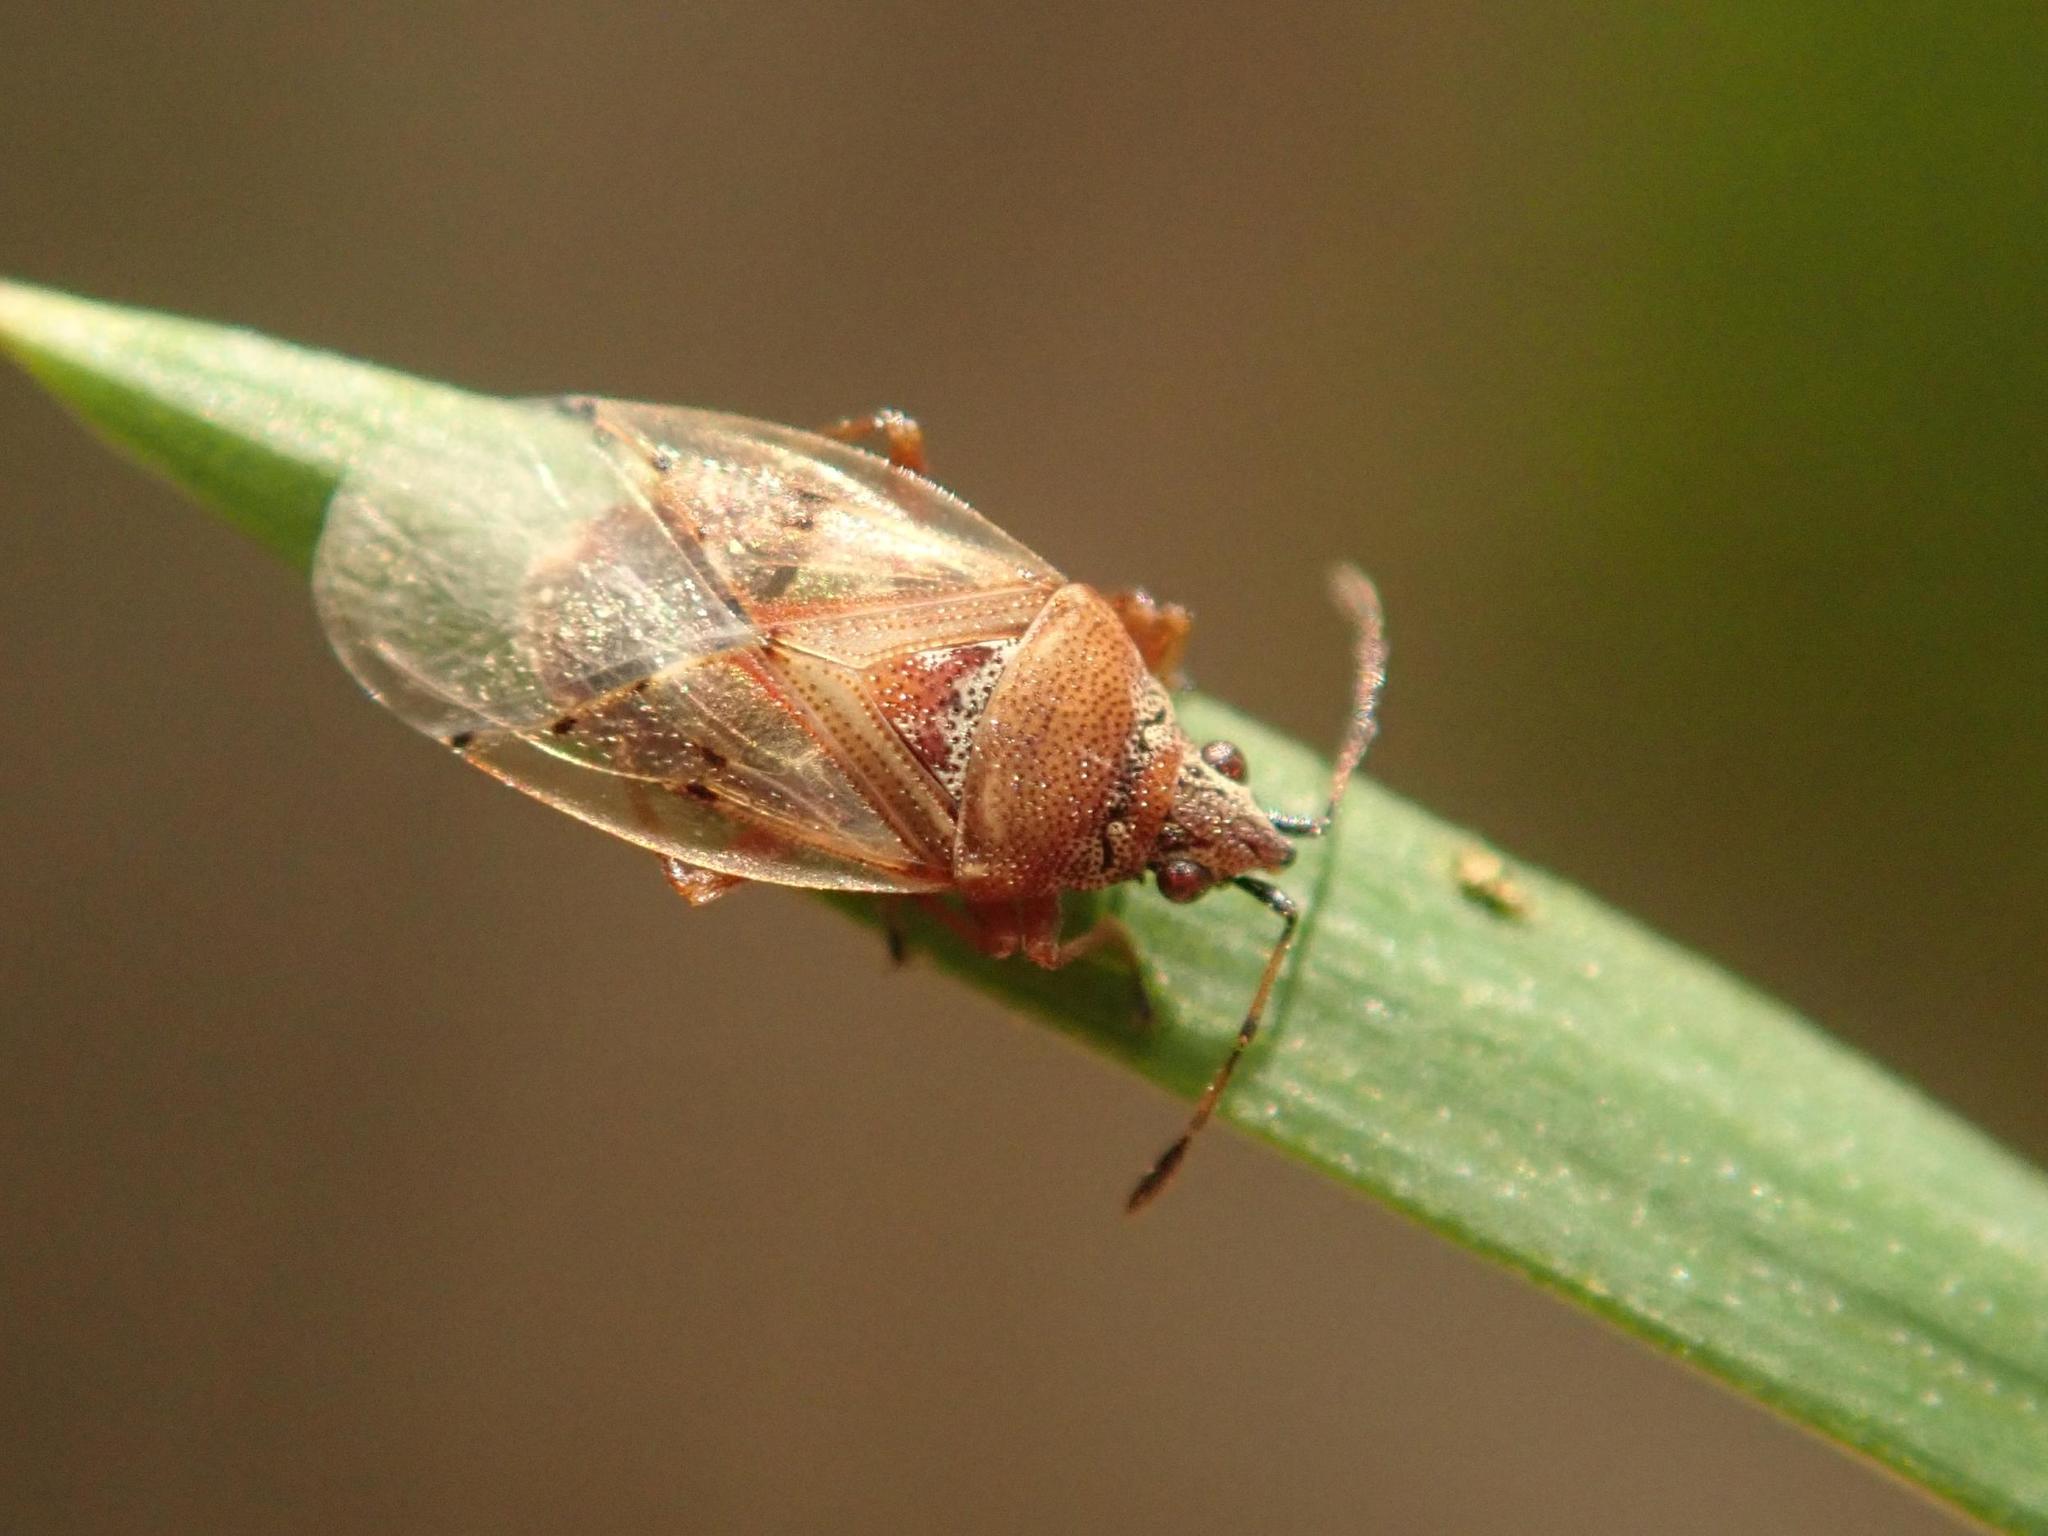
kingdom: Animalia
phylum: Arthropoda
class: Insecta
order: Hemiptera
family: Lygaeidae
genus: Kleidocerys
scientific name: Kleidocerys resedae
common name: Birch catkin bug
